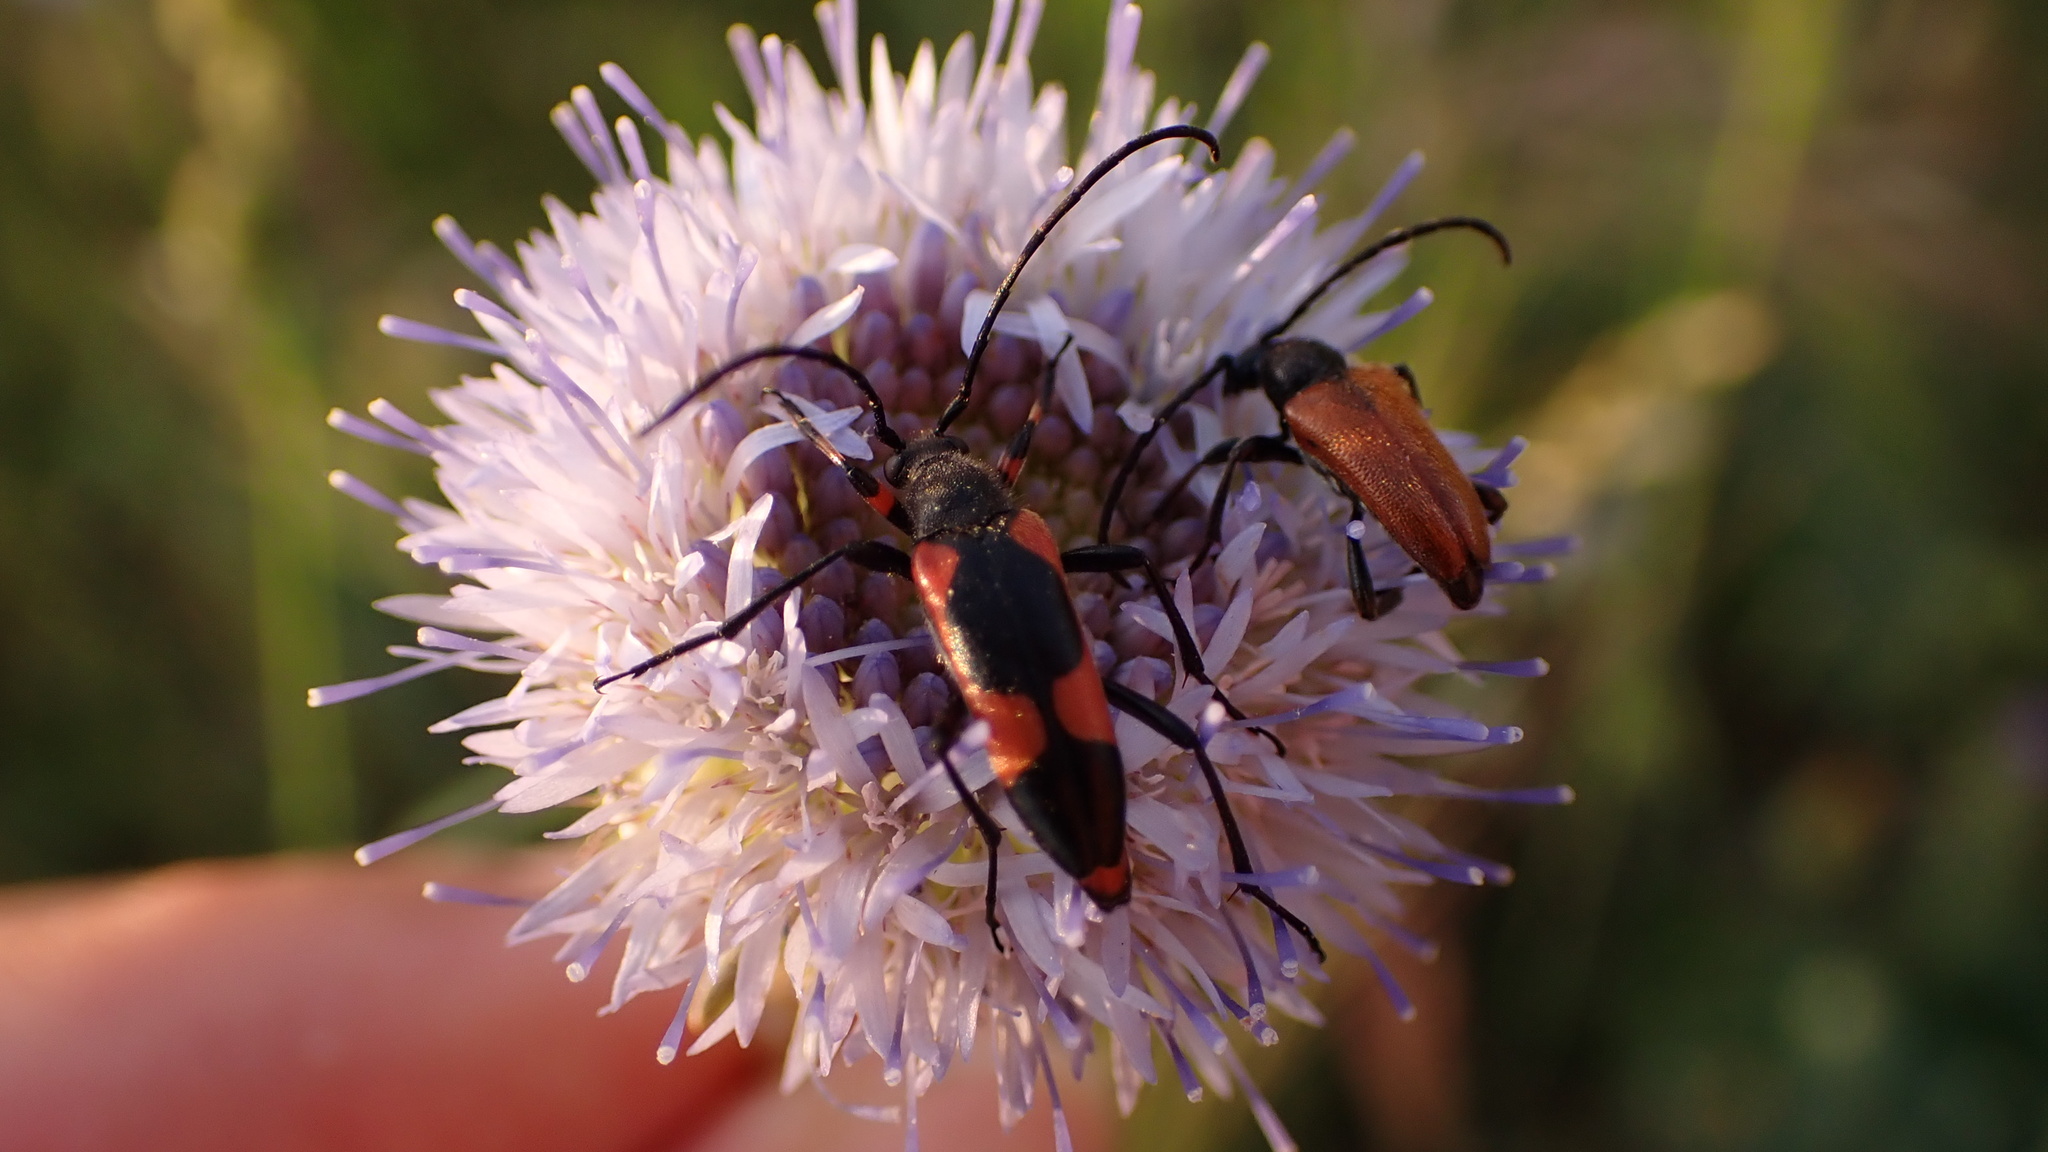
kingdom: Animalia
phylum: Arthropoda
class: Insecta
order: Coleoptera
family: Cerambycidae
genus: Nustera
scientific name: Nustera distigma
